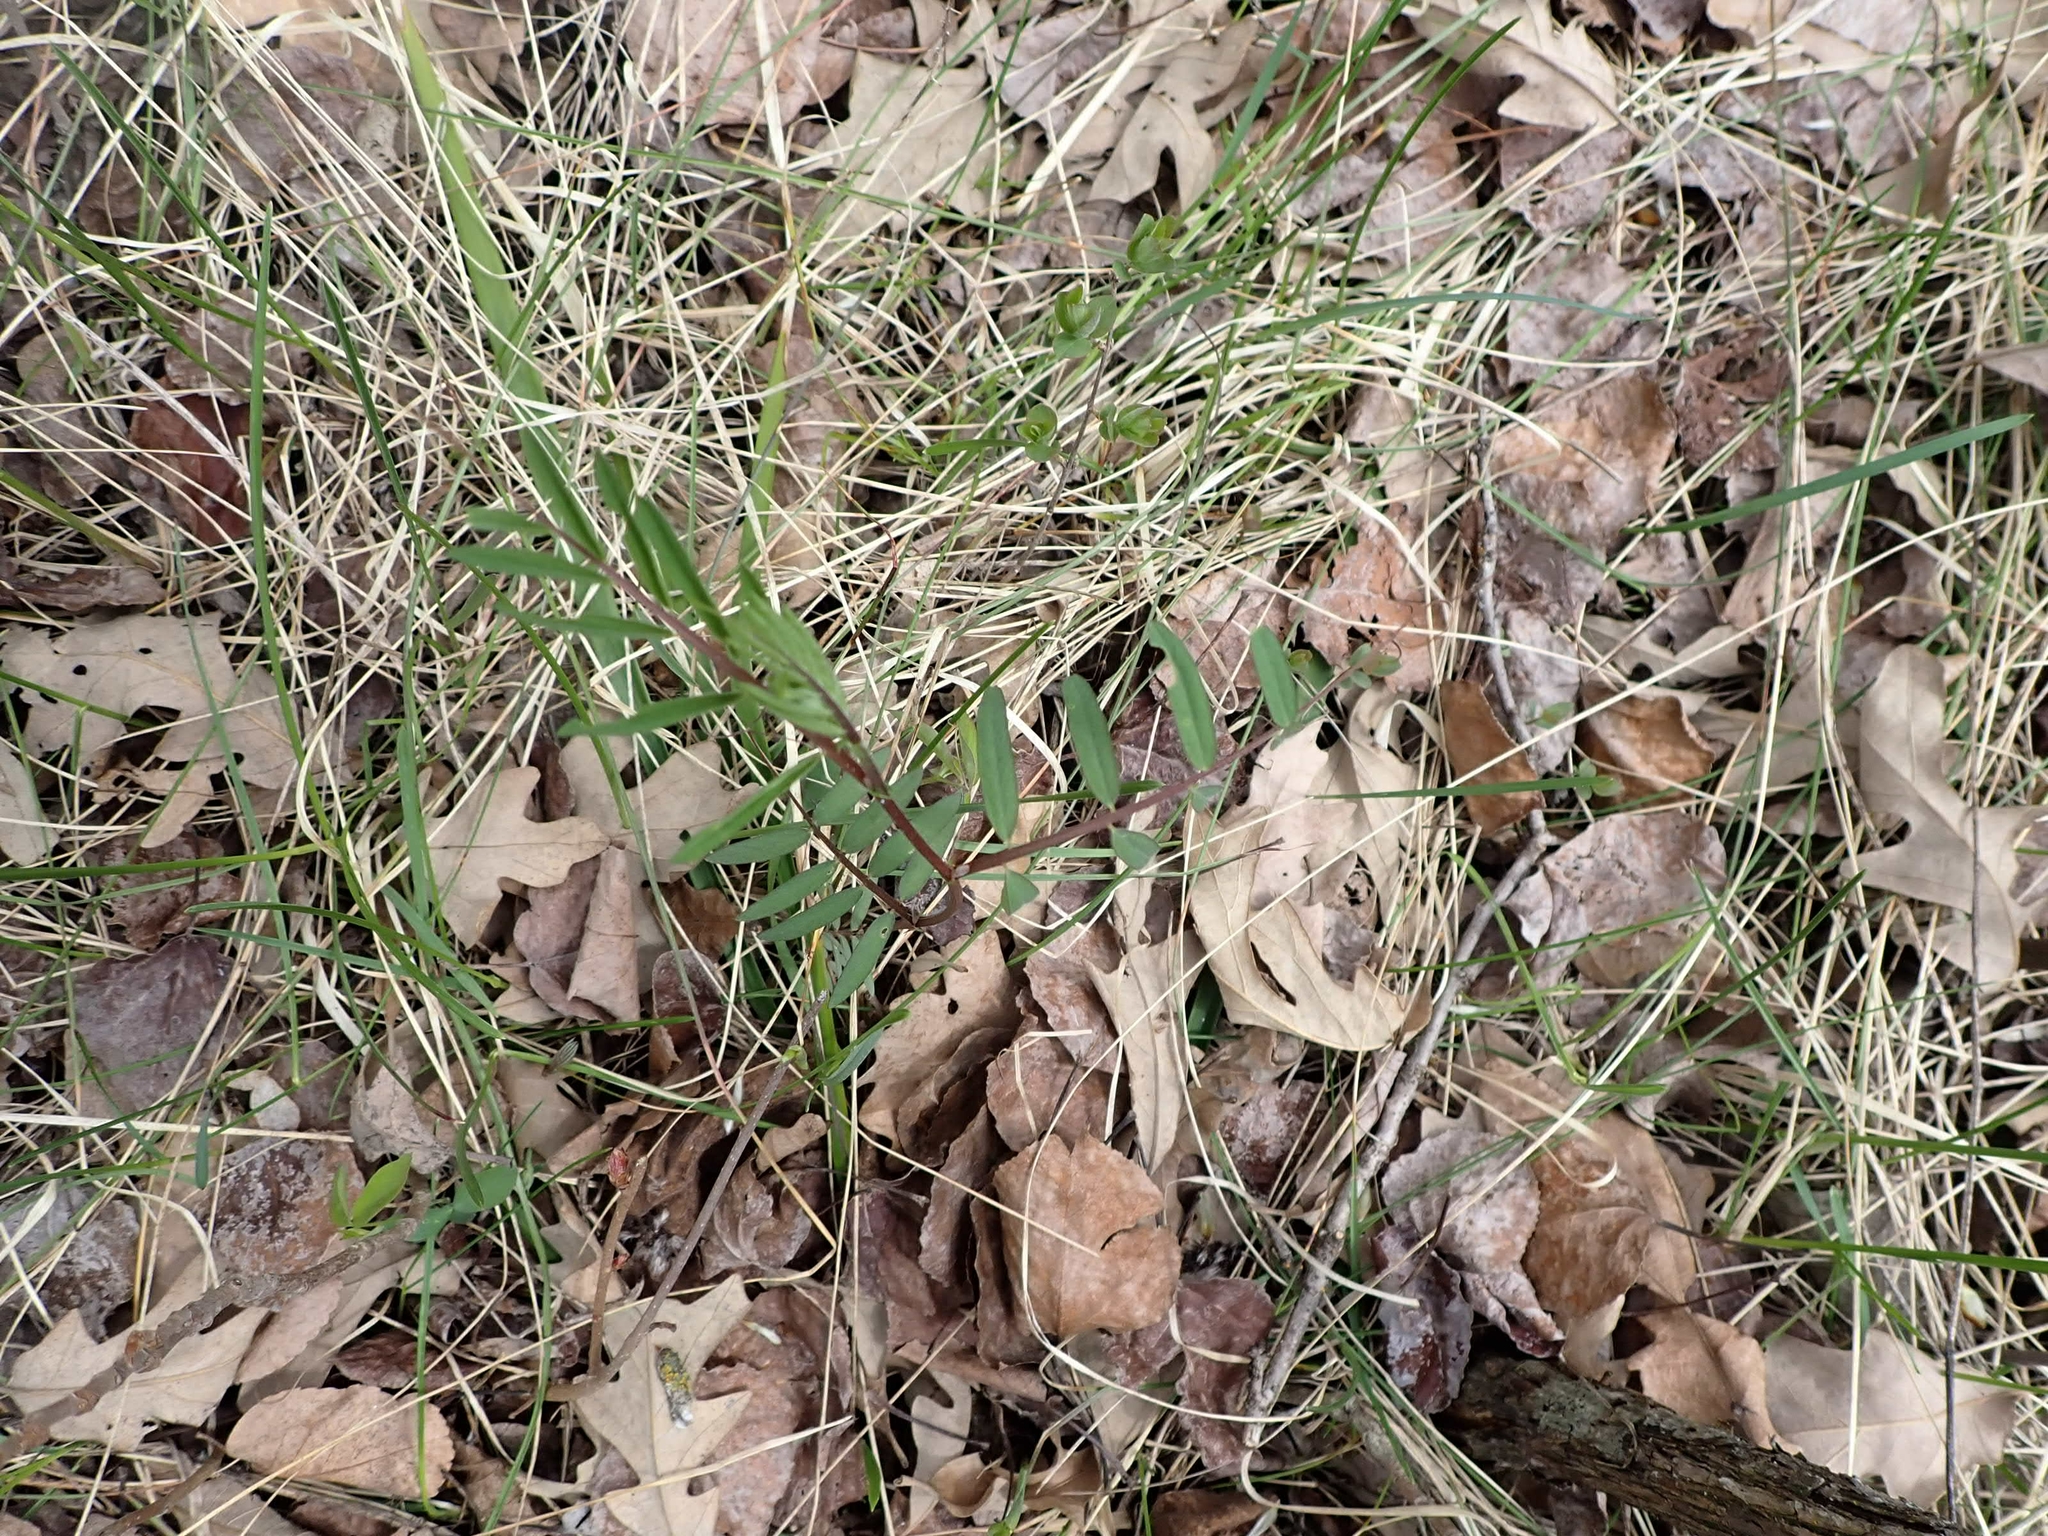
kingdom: Plantae
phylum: Tracheophyta
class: Magnoliopsida
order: Fabales
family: Fabaceae
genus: Vicia
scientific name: Vicia americana
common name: American vetch
